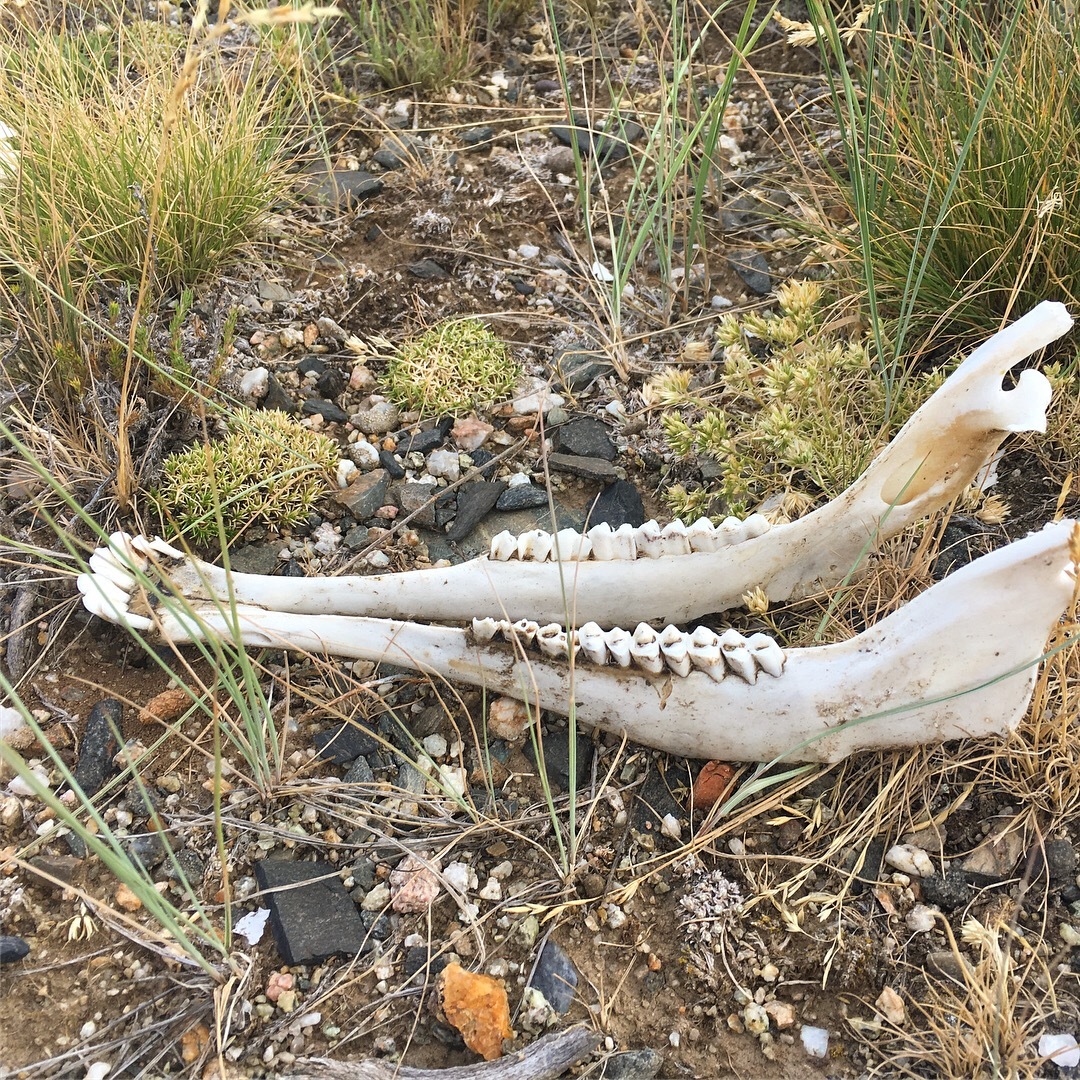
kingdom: Animalia
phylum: Chordata
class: Mammalia
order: Artiodactyla
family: Antilocapridae
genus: Antilocapra
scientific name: Antilocapra americana
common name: Pronghorn
